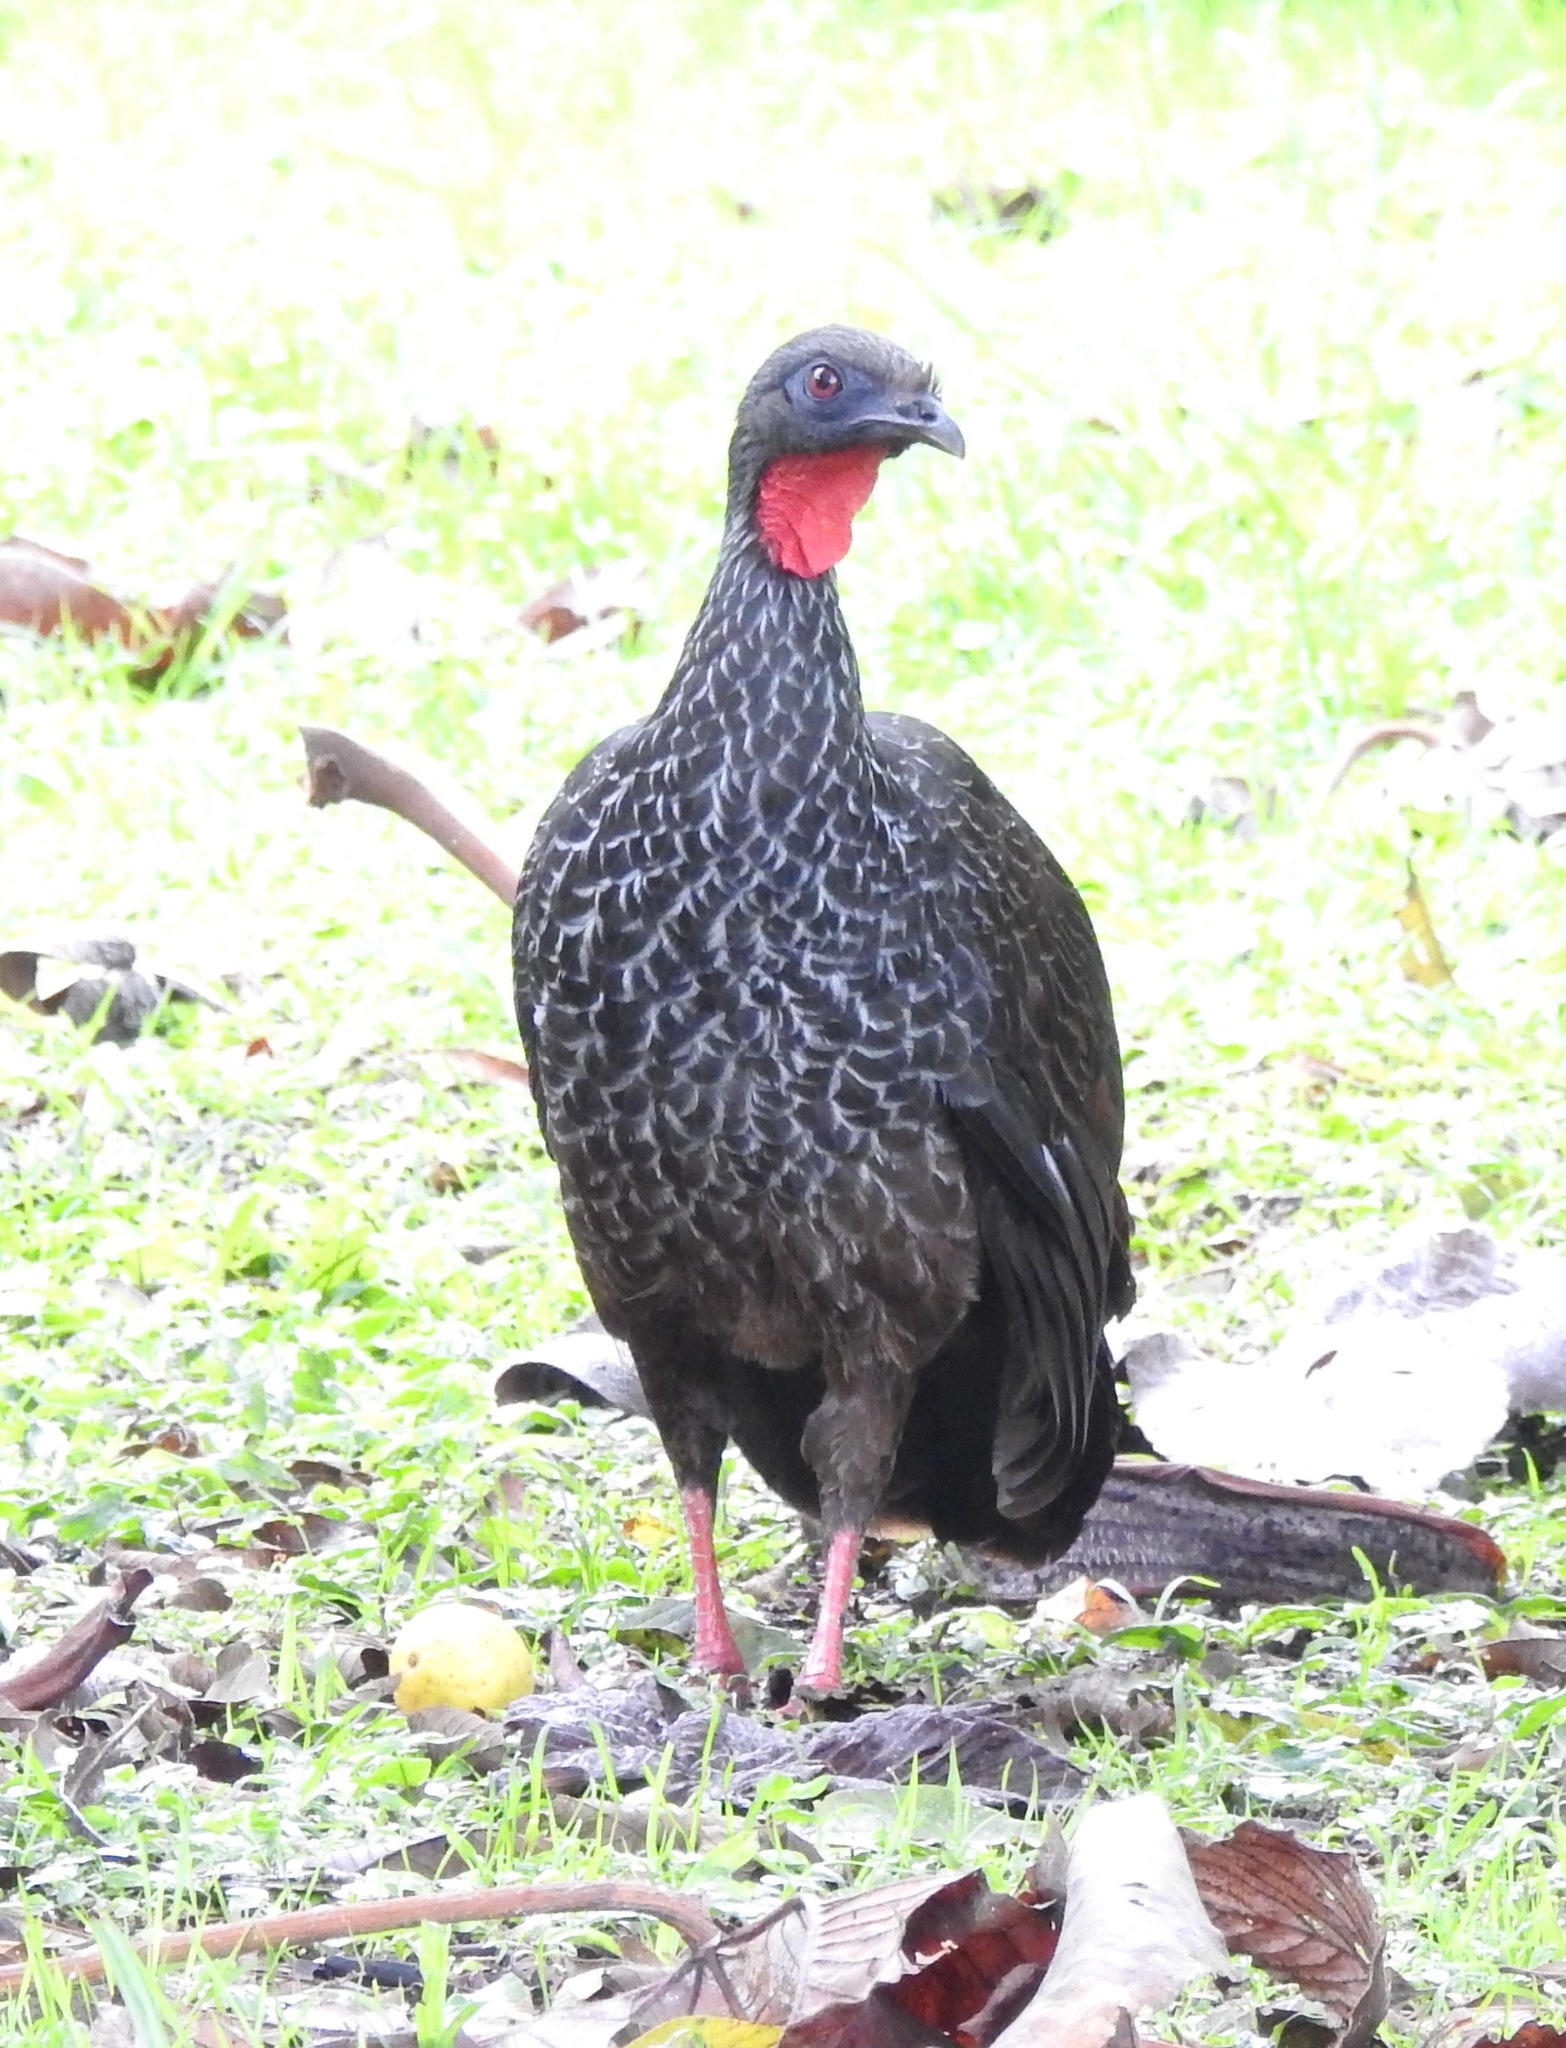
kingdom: Animalia
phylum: Chordata
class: Aves
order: Galliformes
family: Cracidae
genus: Penelope
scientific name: Penelope perspicax
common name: Cauca guan
